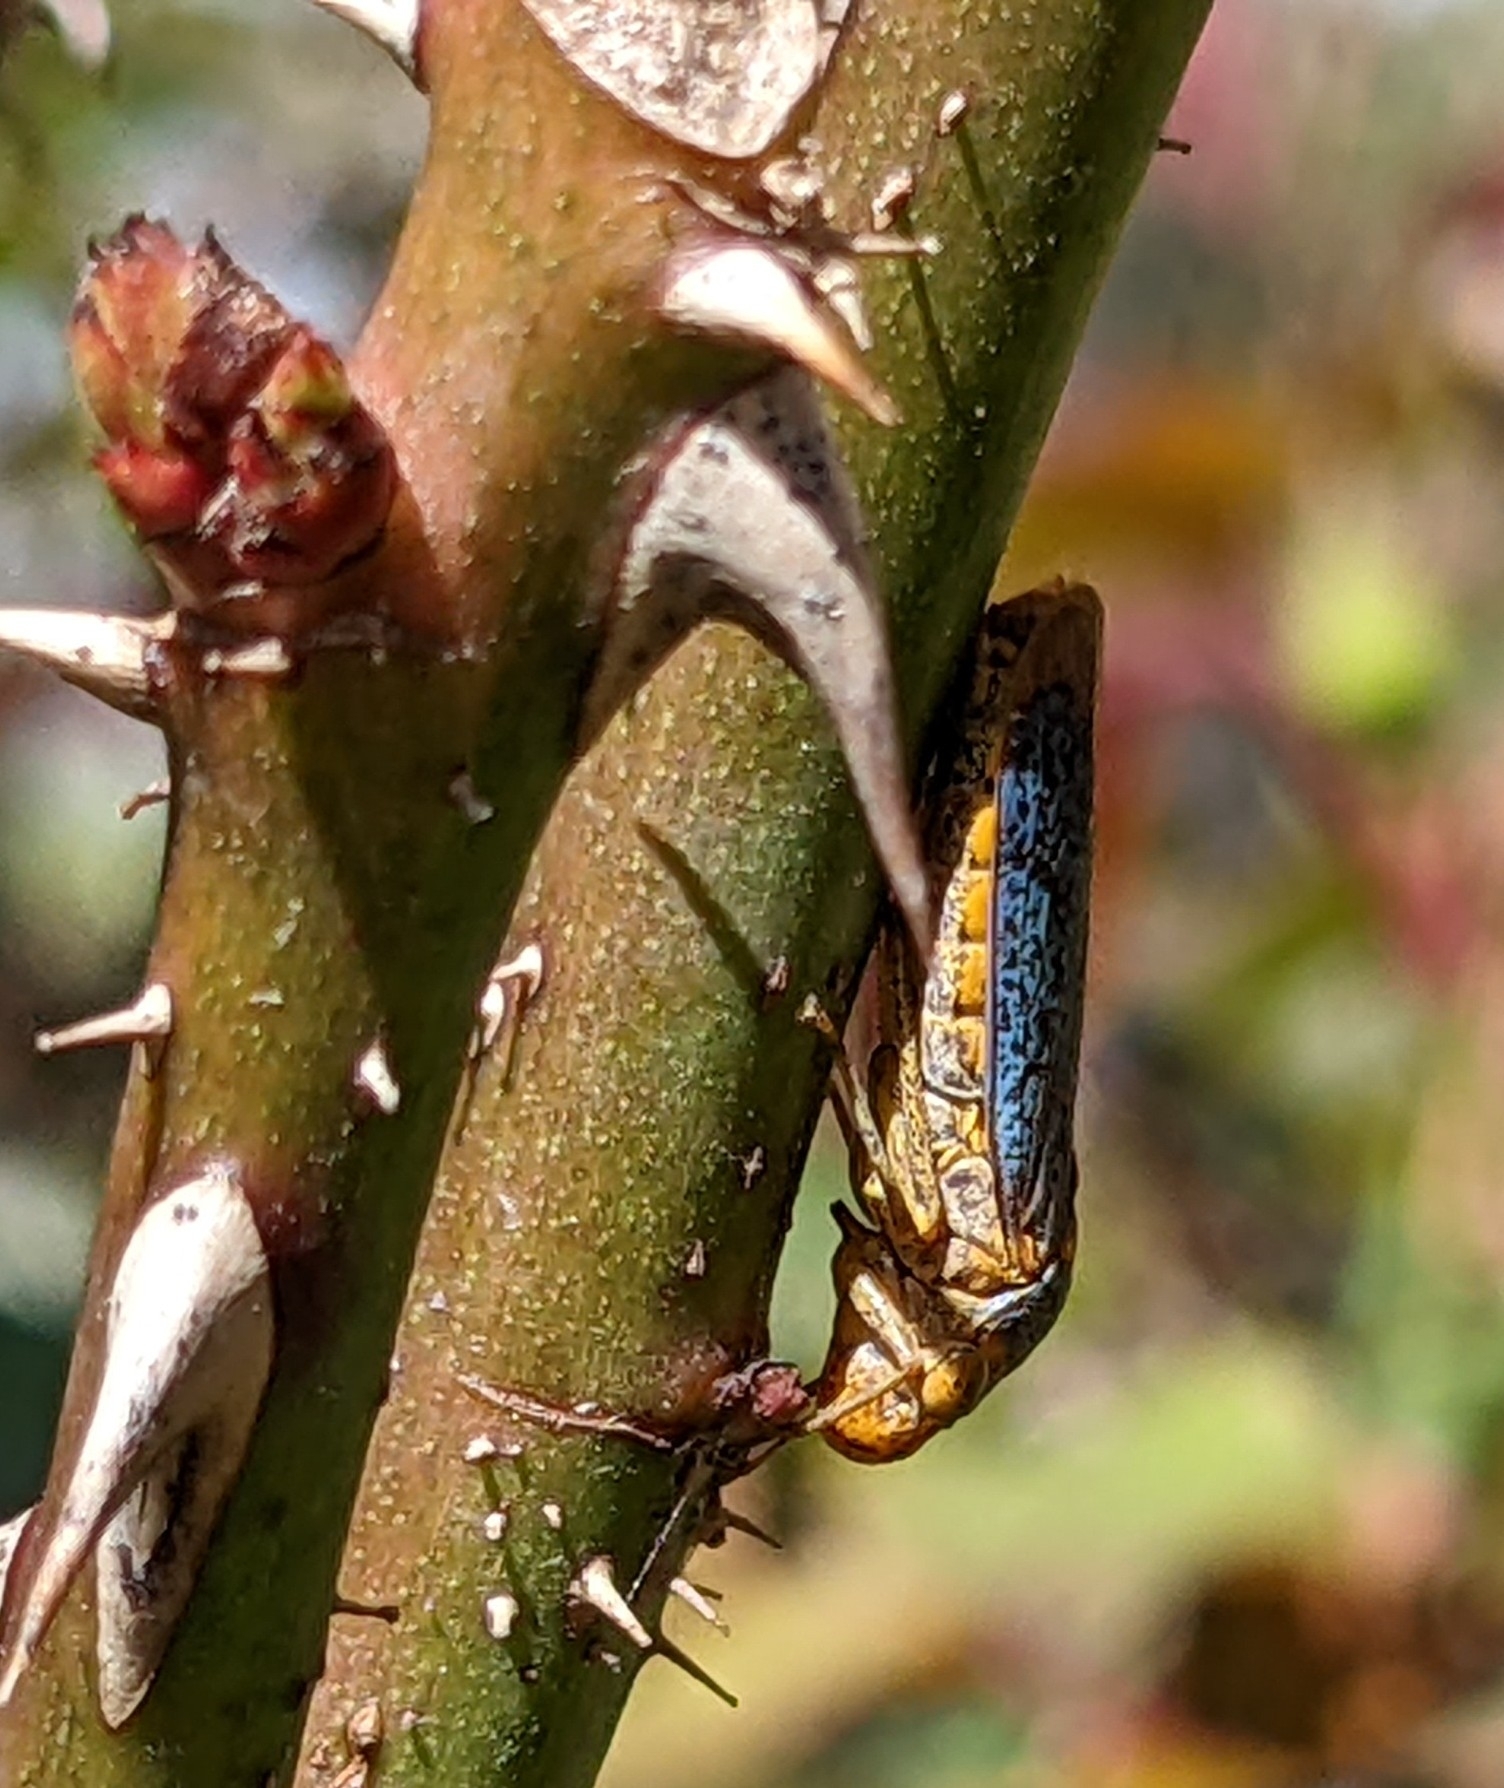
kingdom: Animalia
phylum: Arthropoda
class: Insecta
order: Hemiptera
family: Cicadellidae
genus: Oncometopia
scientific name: Oncometopia orbona
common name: Broad-headed sharpshooter
